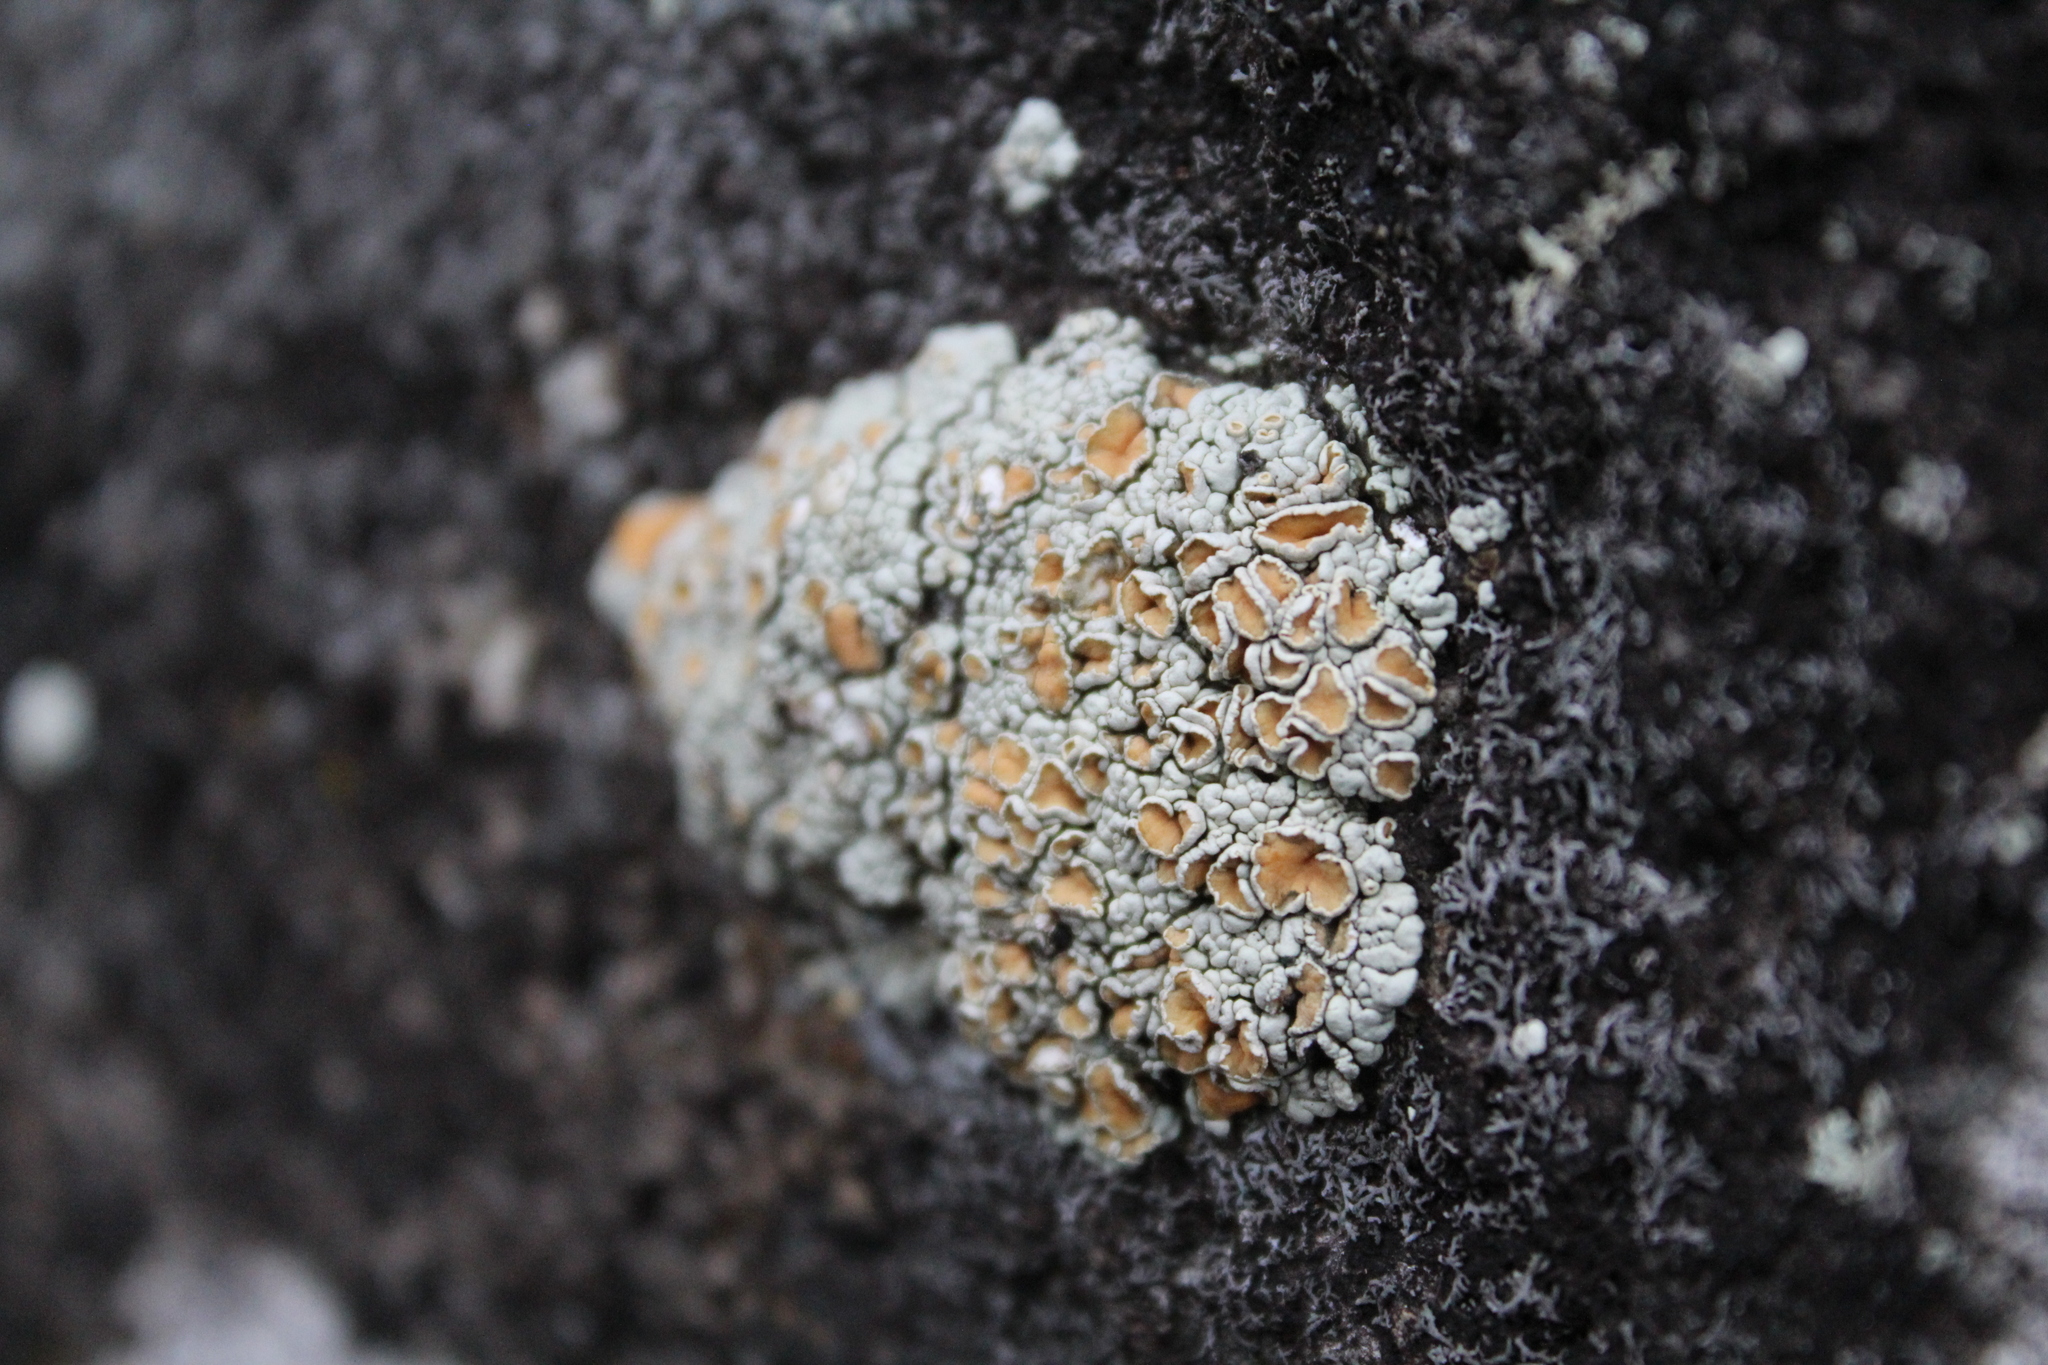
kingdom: Fungi
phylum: Ascomycota
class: Lecanoromycetes
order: Lecanorales
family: Lecanoraceae
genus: Sedelnikovaea
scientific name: Sedelnikovaea subdiscrepans
